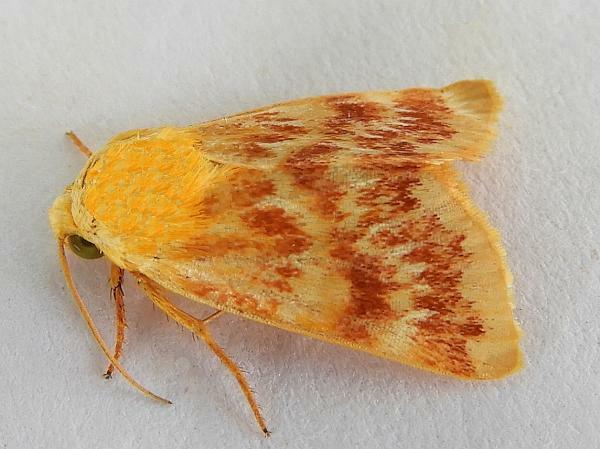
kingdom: Animalia
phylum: Arthropoda
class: Insecta
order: Lepidoptera
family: Noctuidae
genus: Schinia
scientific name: Schinia fulleri
